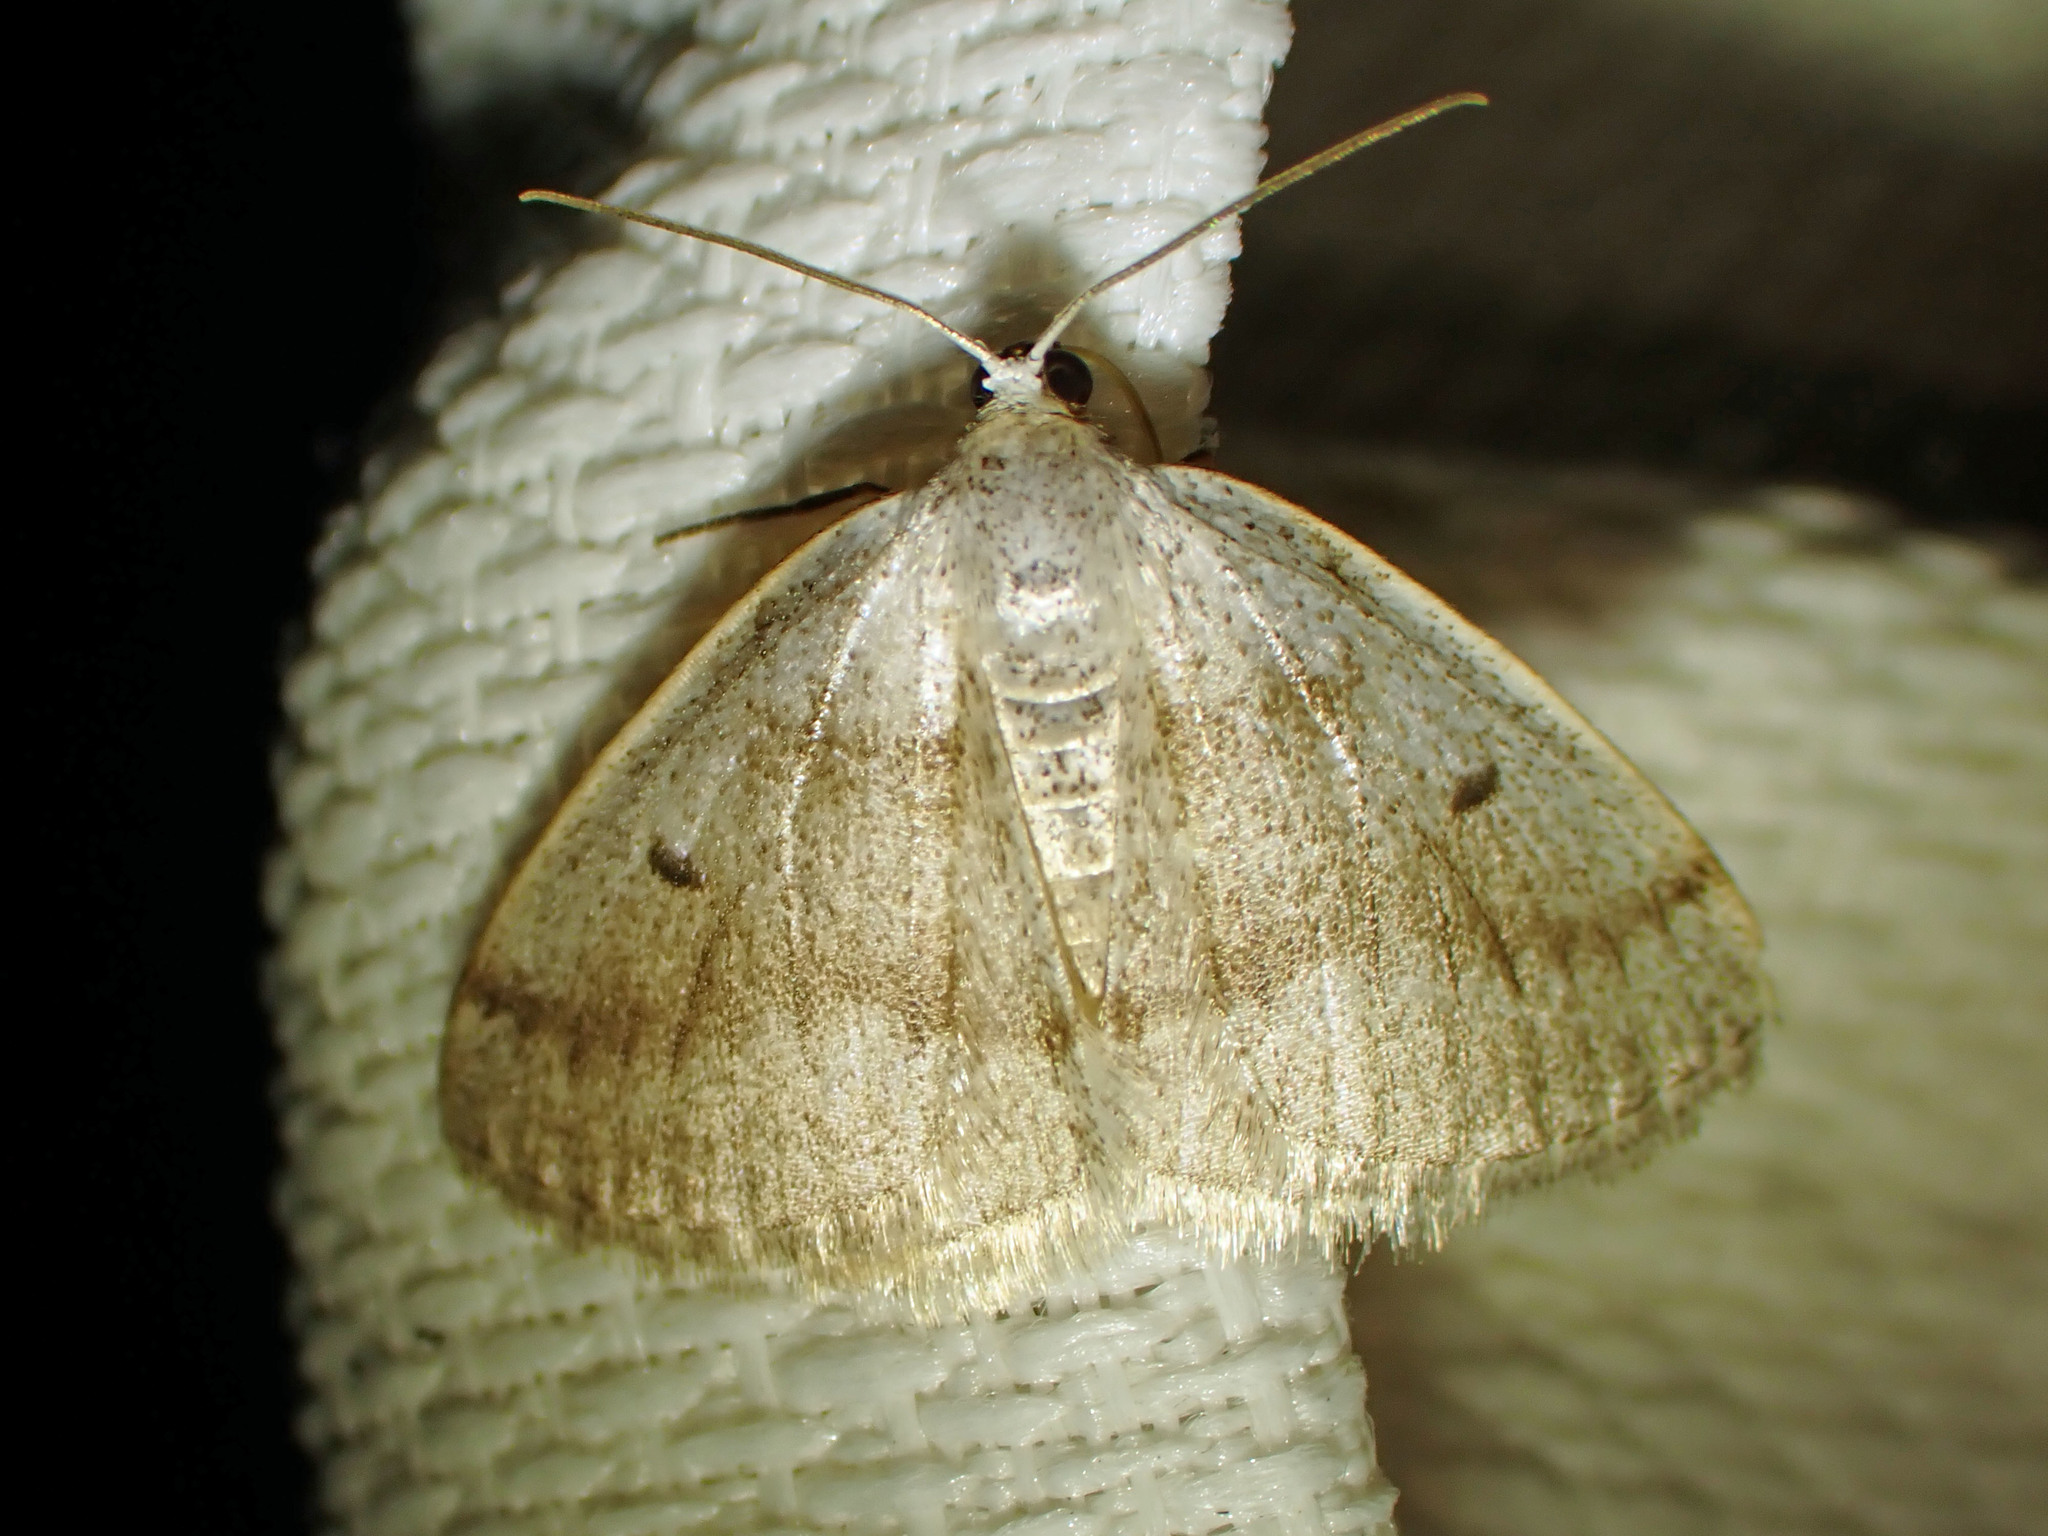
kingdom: Animalia
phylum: Arthropoda
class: Insecta
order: Lepidoptera
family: Geometridae
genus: Lomographa
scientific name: Lomographa glomeraria
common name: Gray spring moth
